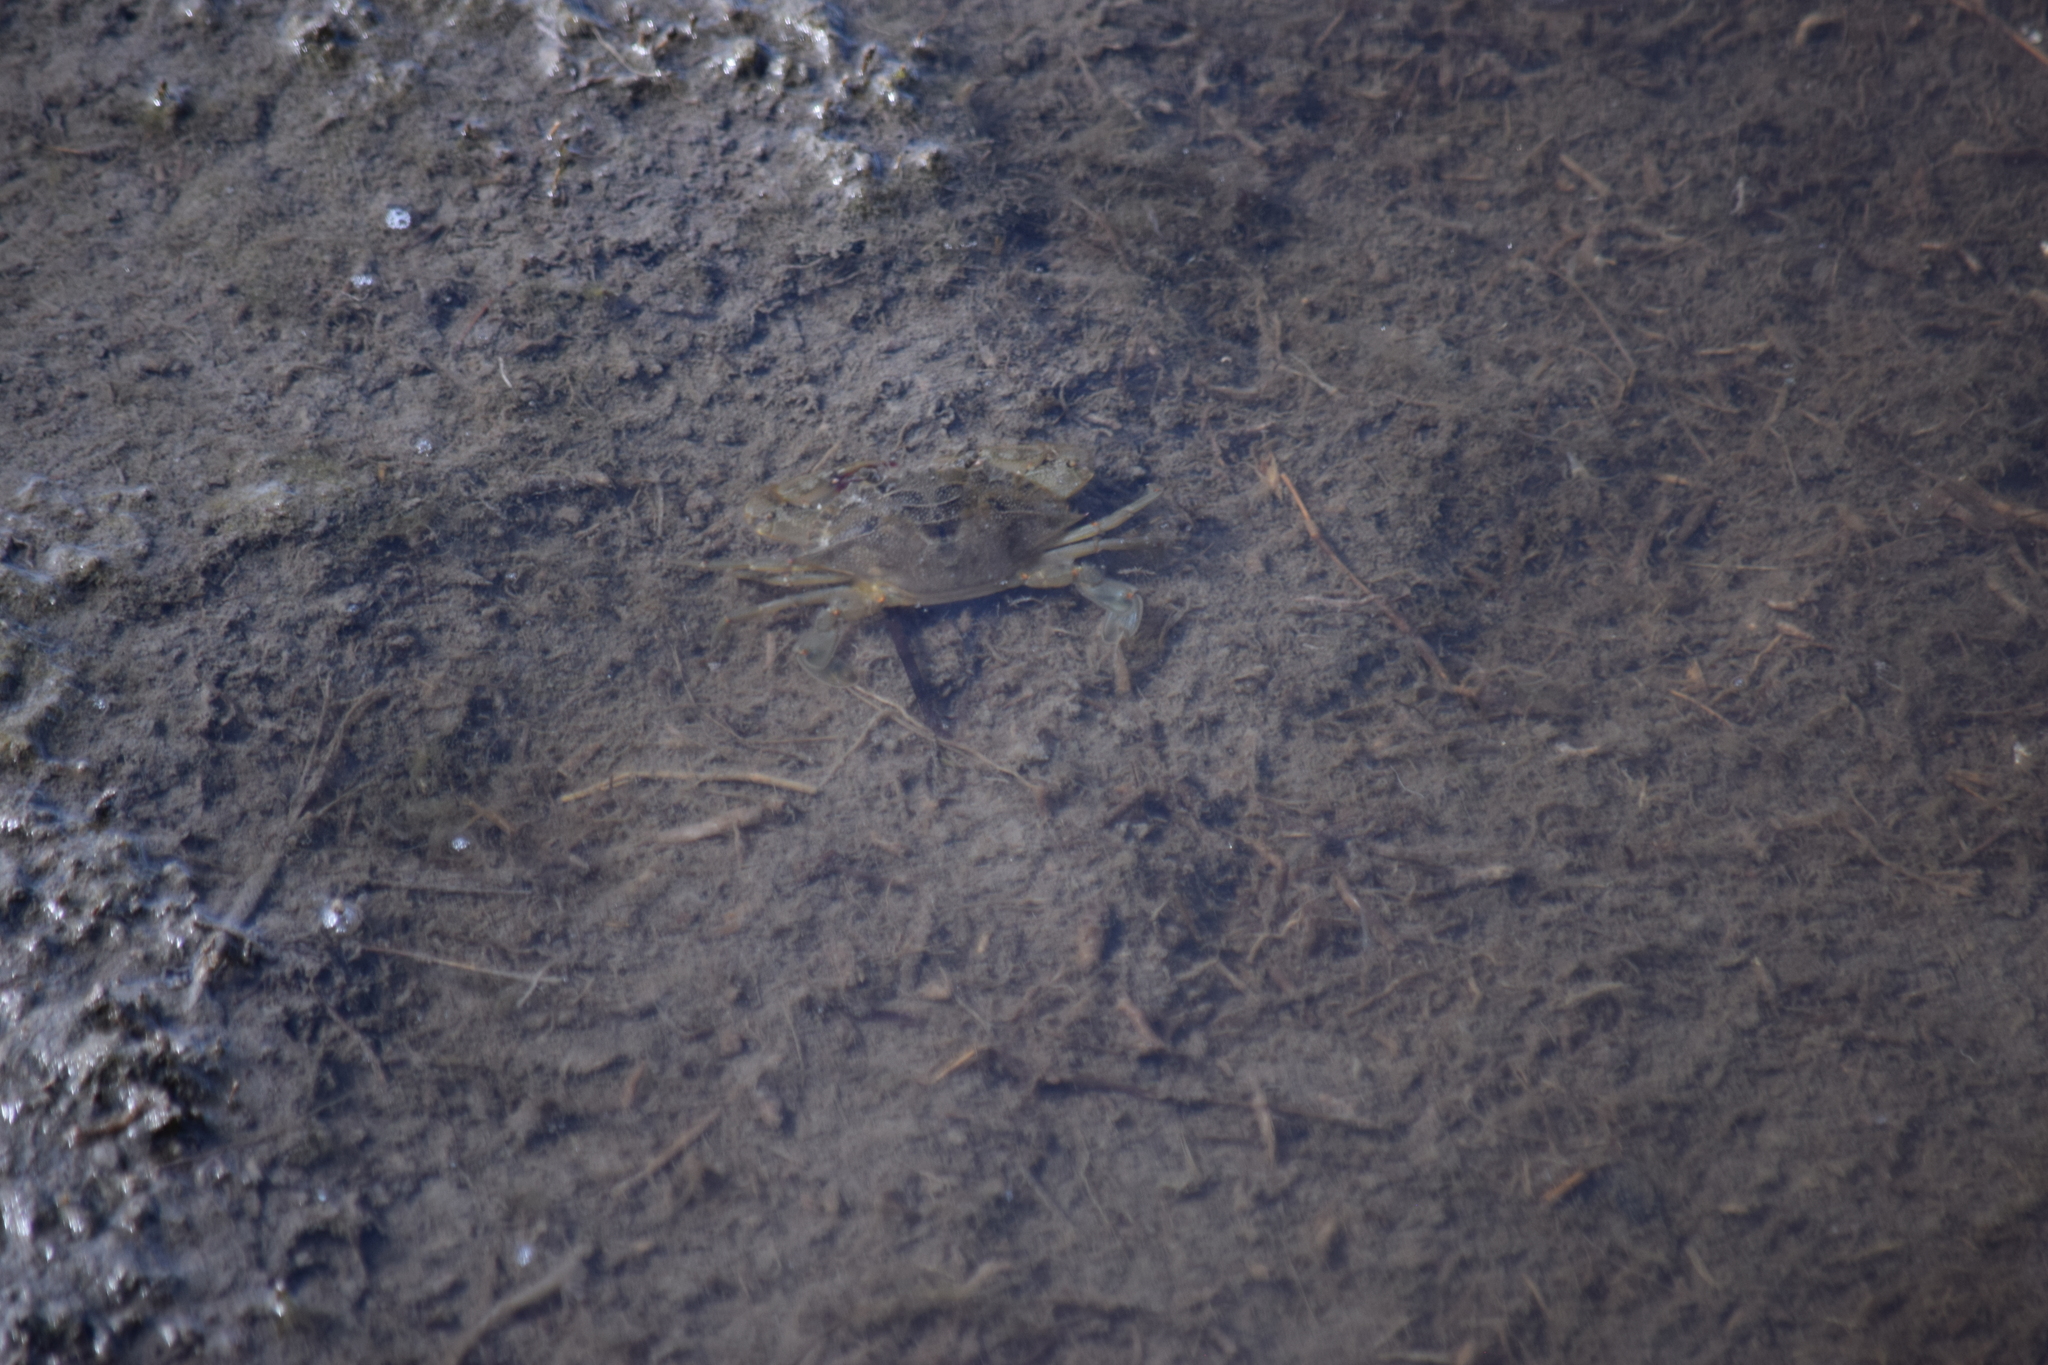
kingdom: Animalia
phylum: Arthropoda
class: Malacostraca
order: Decapoda
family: Portunidae
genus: Callinectes
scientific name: Callinectes sapidus
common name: Blue crab
